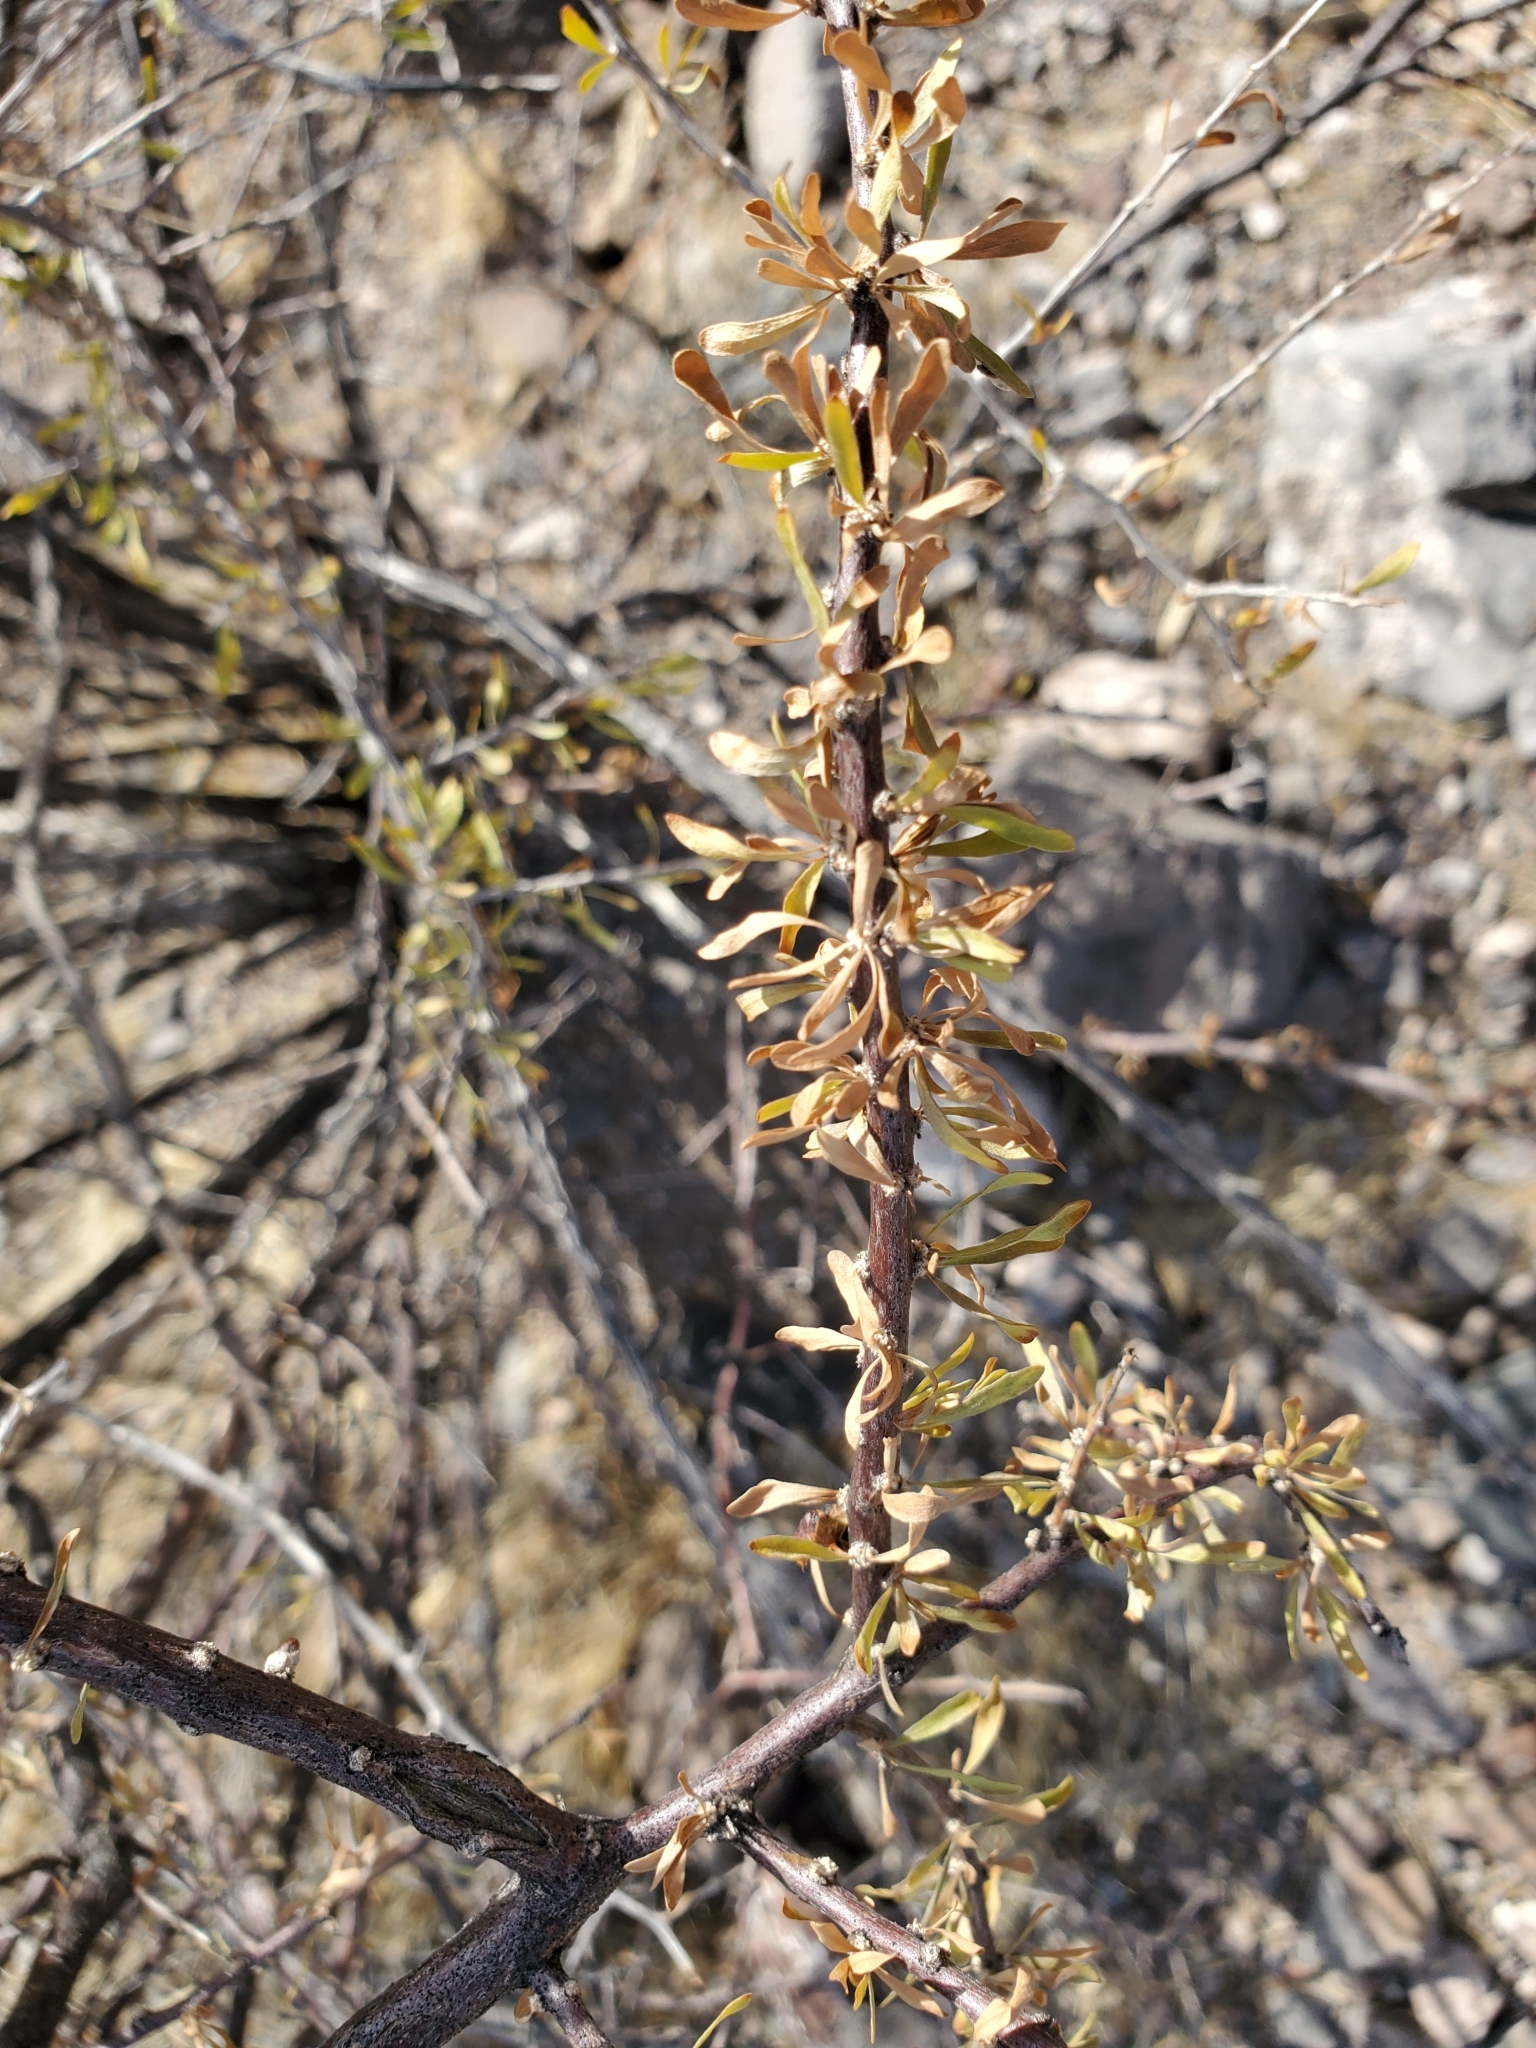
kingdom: Plantae
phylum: Tracheophyta
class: Magnoliopsida
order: Solanales
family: Solanaceae
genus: Lycium
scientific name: Lycium berlandieri
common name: Berlandier wolfberry
